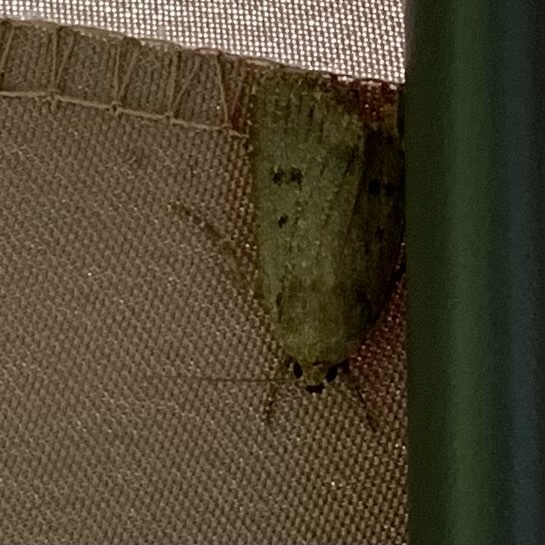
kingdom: Animalia
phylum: Arthropoda
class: Insecta
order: Lepidoptera
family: Noctuidae
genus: Amphipyra
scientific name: Amphipyra tragopoginis
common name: Mouse moth
